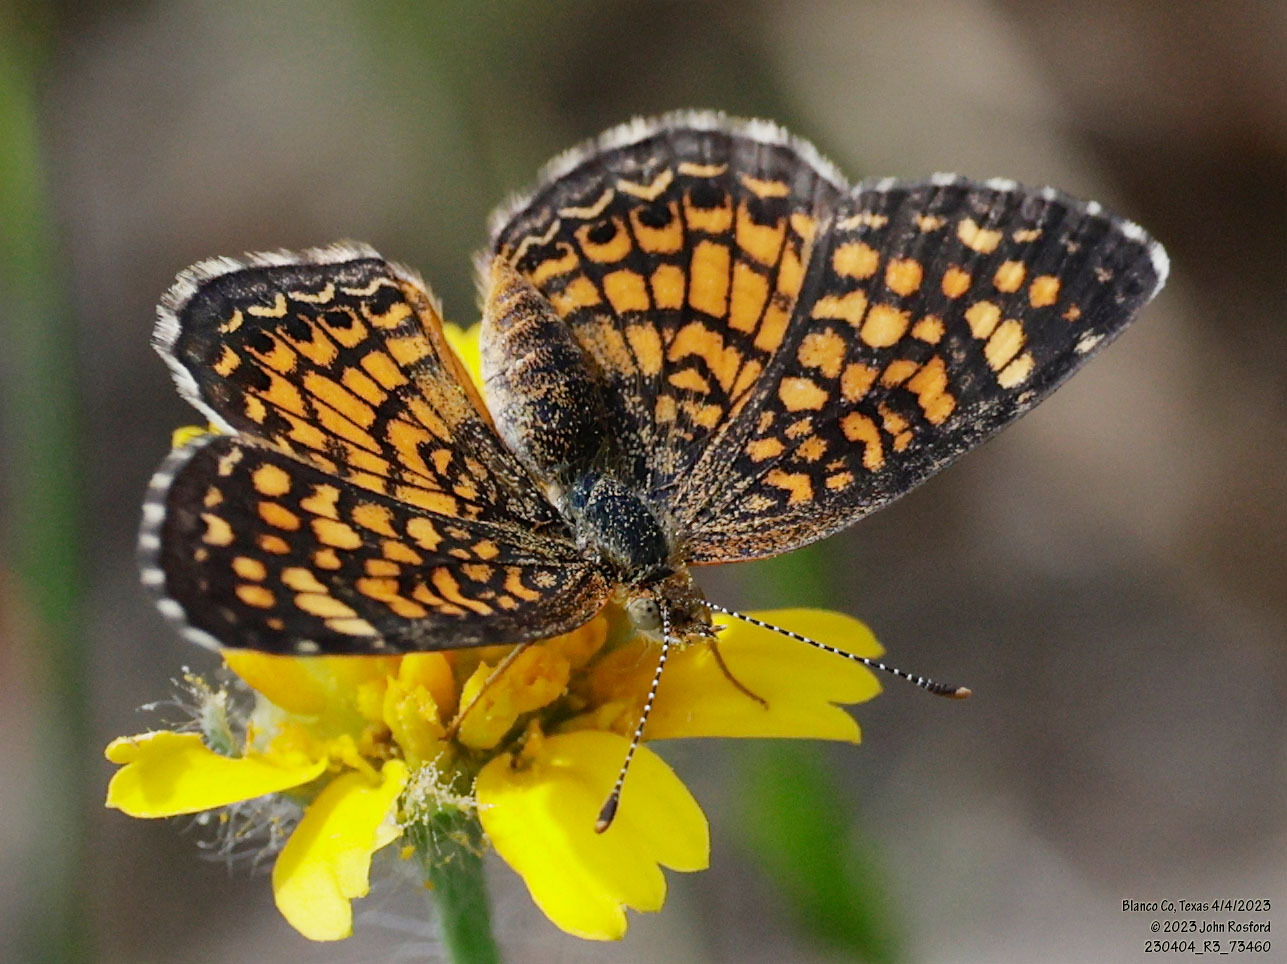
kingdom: Animalia
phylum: Arthropoda
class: Insecta
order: Lepidoptera
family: Nymphalidae
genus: Phyciodes
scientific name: Phyciodes vesta
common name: Vesta crescent
